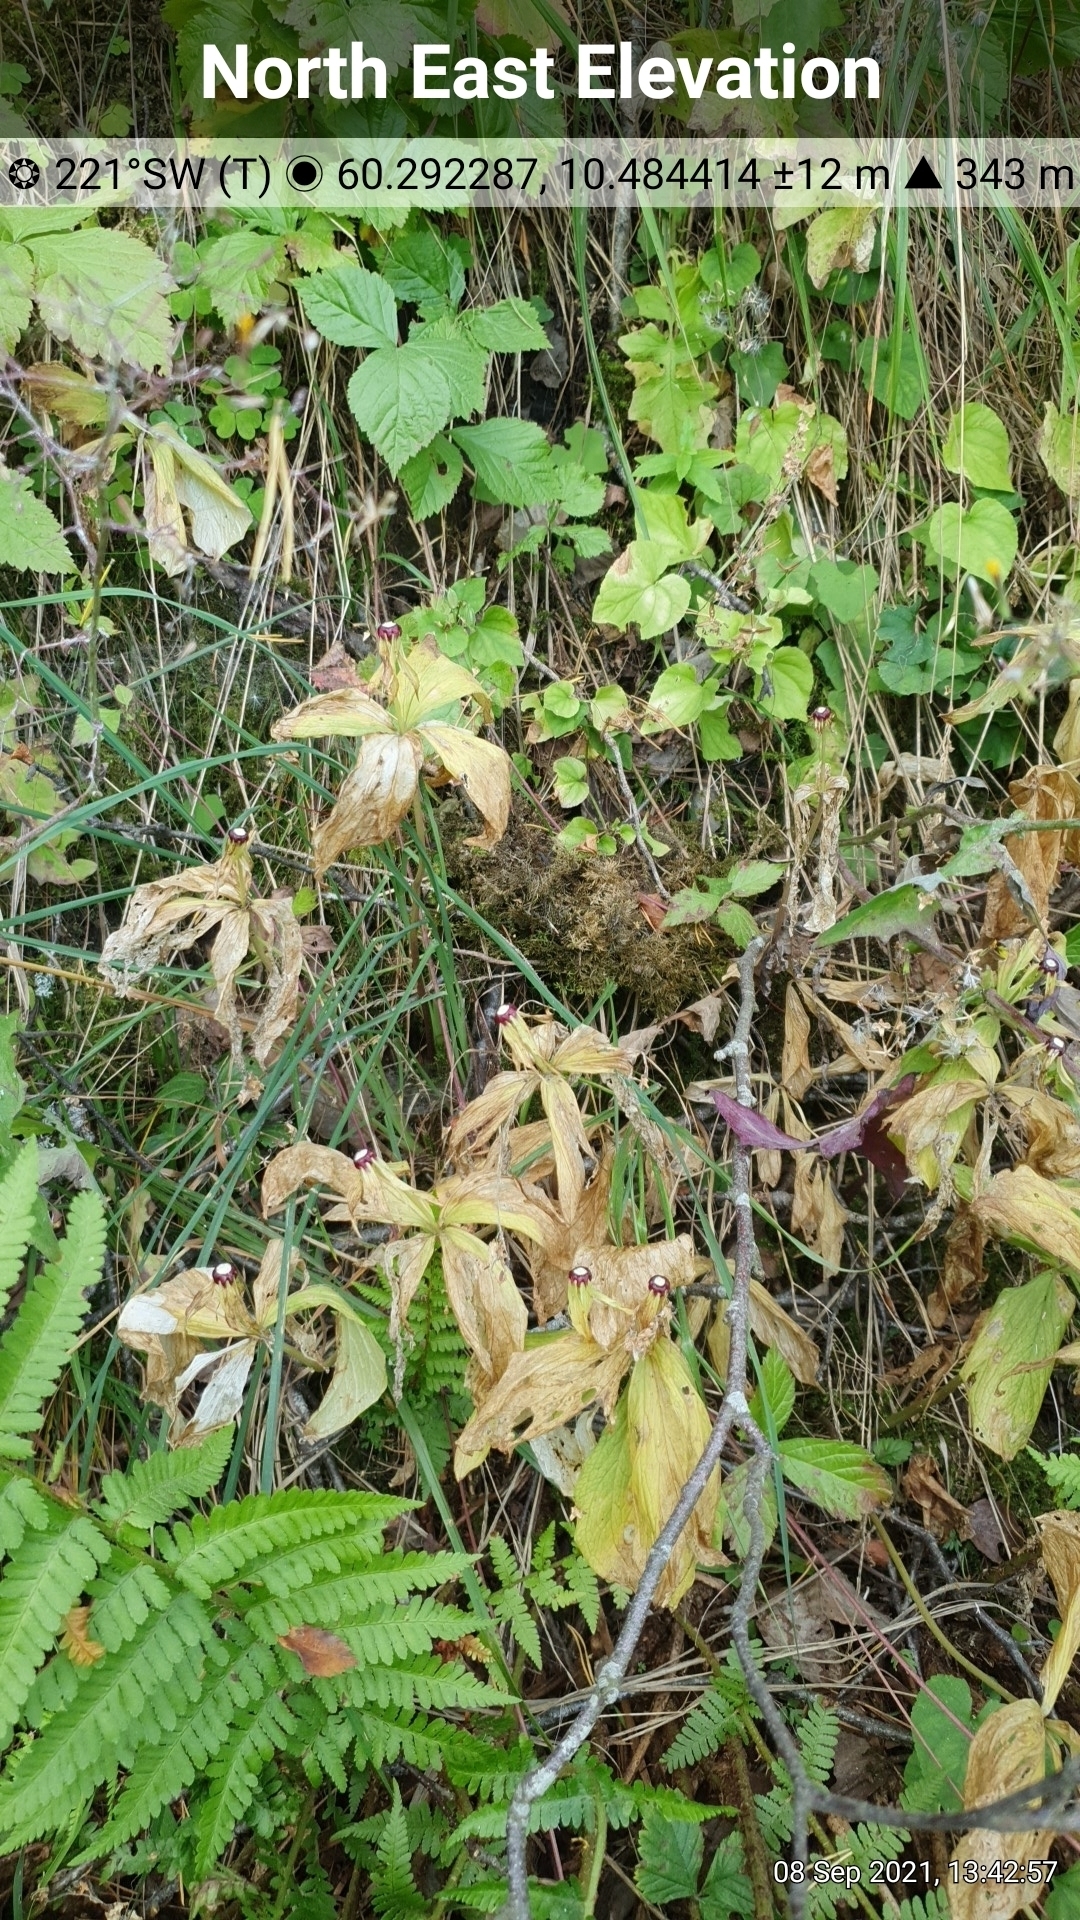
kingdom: Plantae
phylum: Tracheophyta
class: Liliopsida
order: Liliales
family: Melanthiaceae
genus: Paris
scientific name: Paris quadrifolia
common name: Herb-paris
